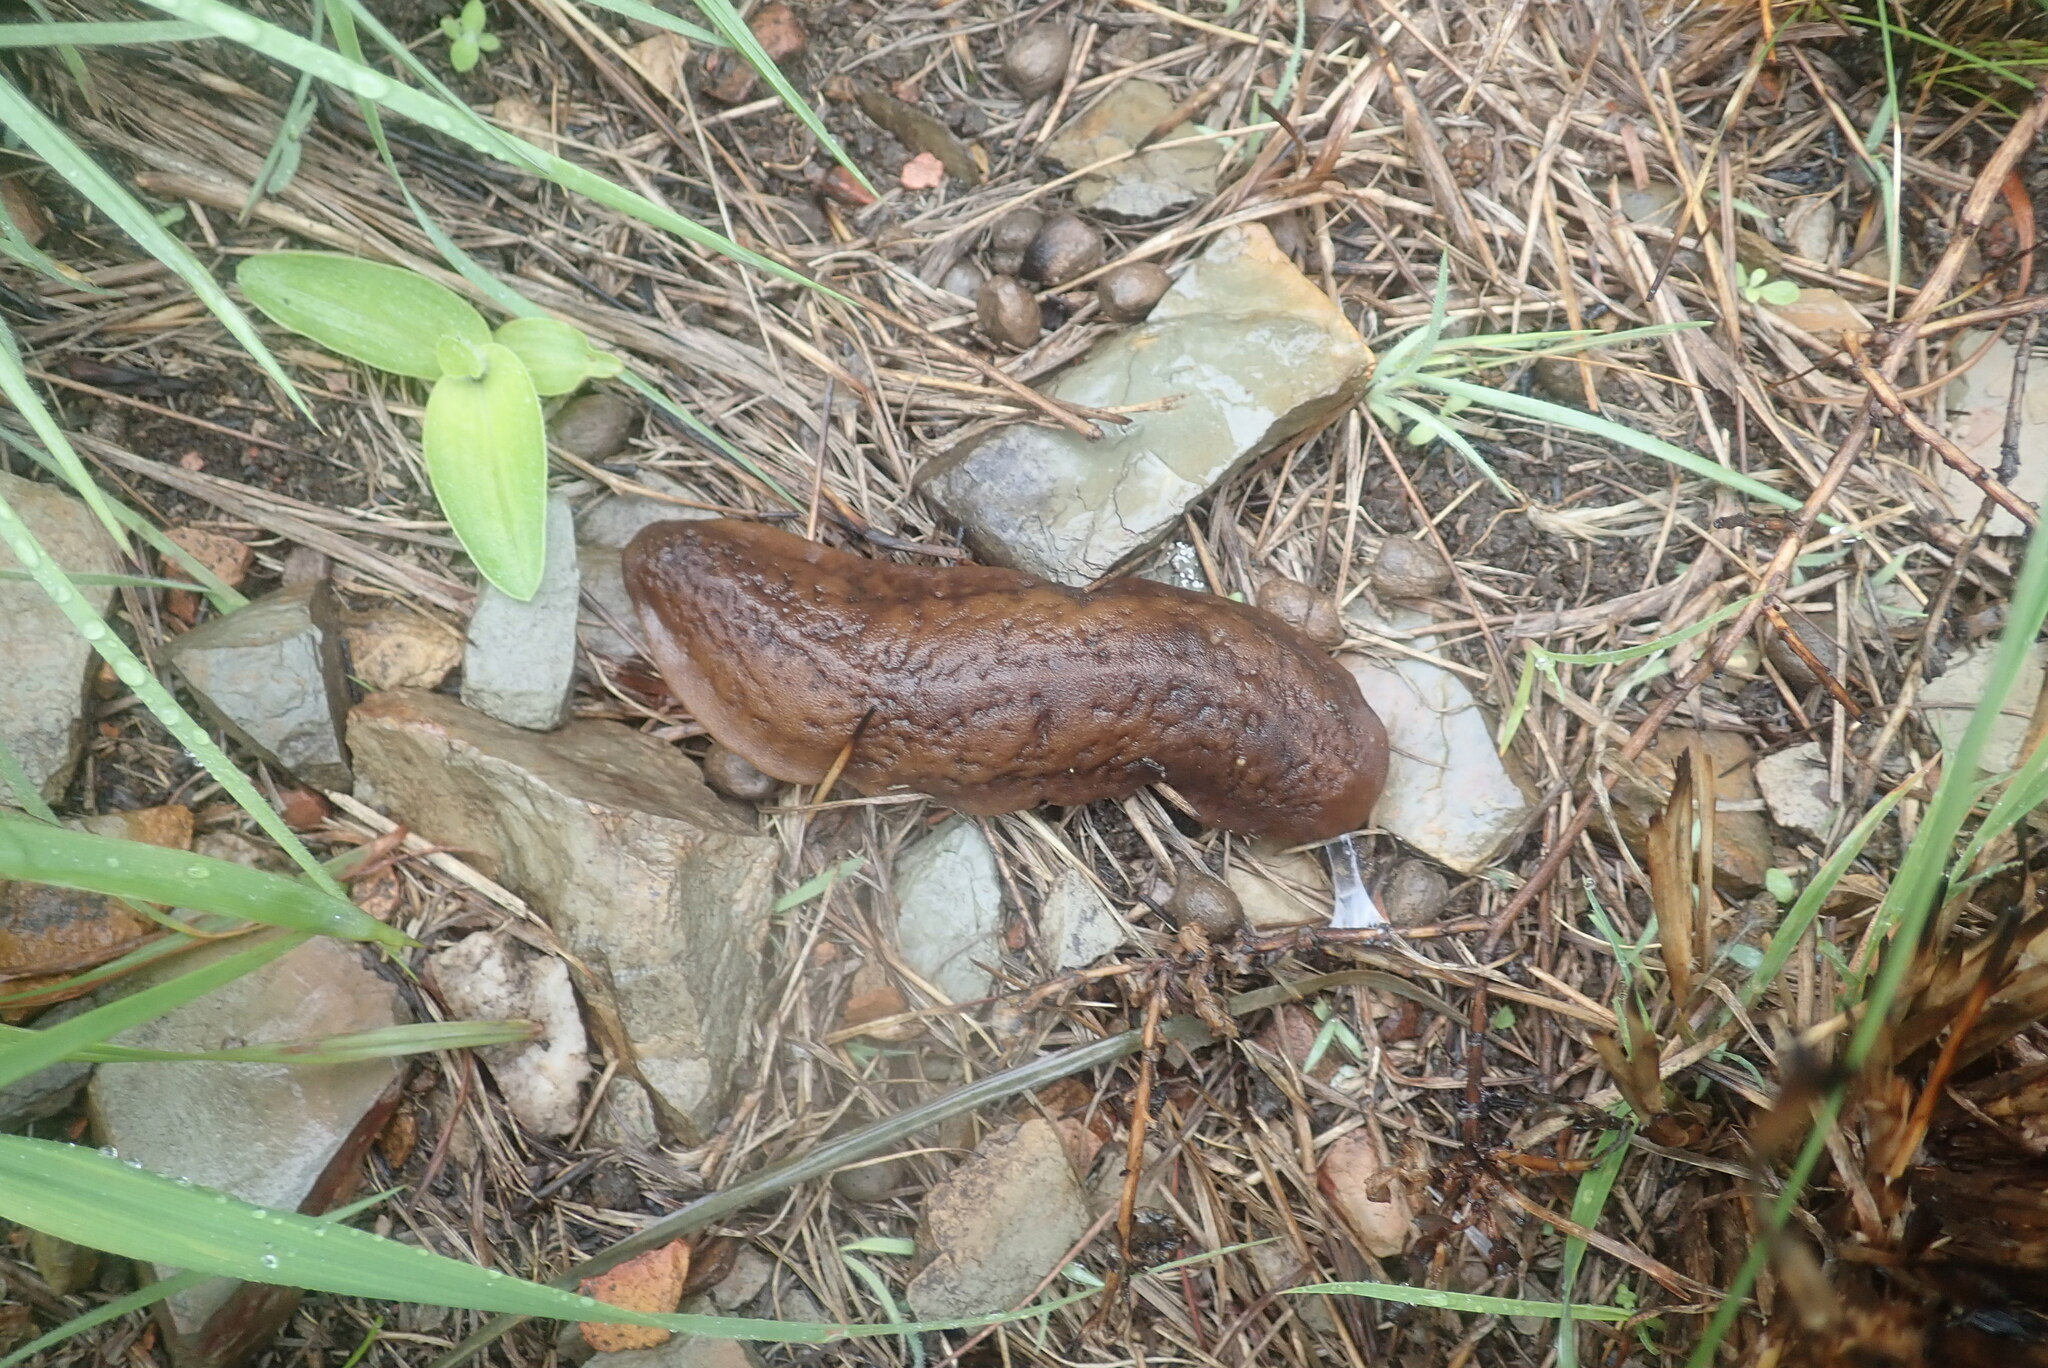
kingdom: Animalia
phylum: Mollusca
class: Gastropoda
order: Systellommatophora
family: Veronicellidae
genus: Laevicaulis
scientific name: Laevicaulis natalensis
